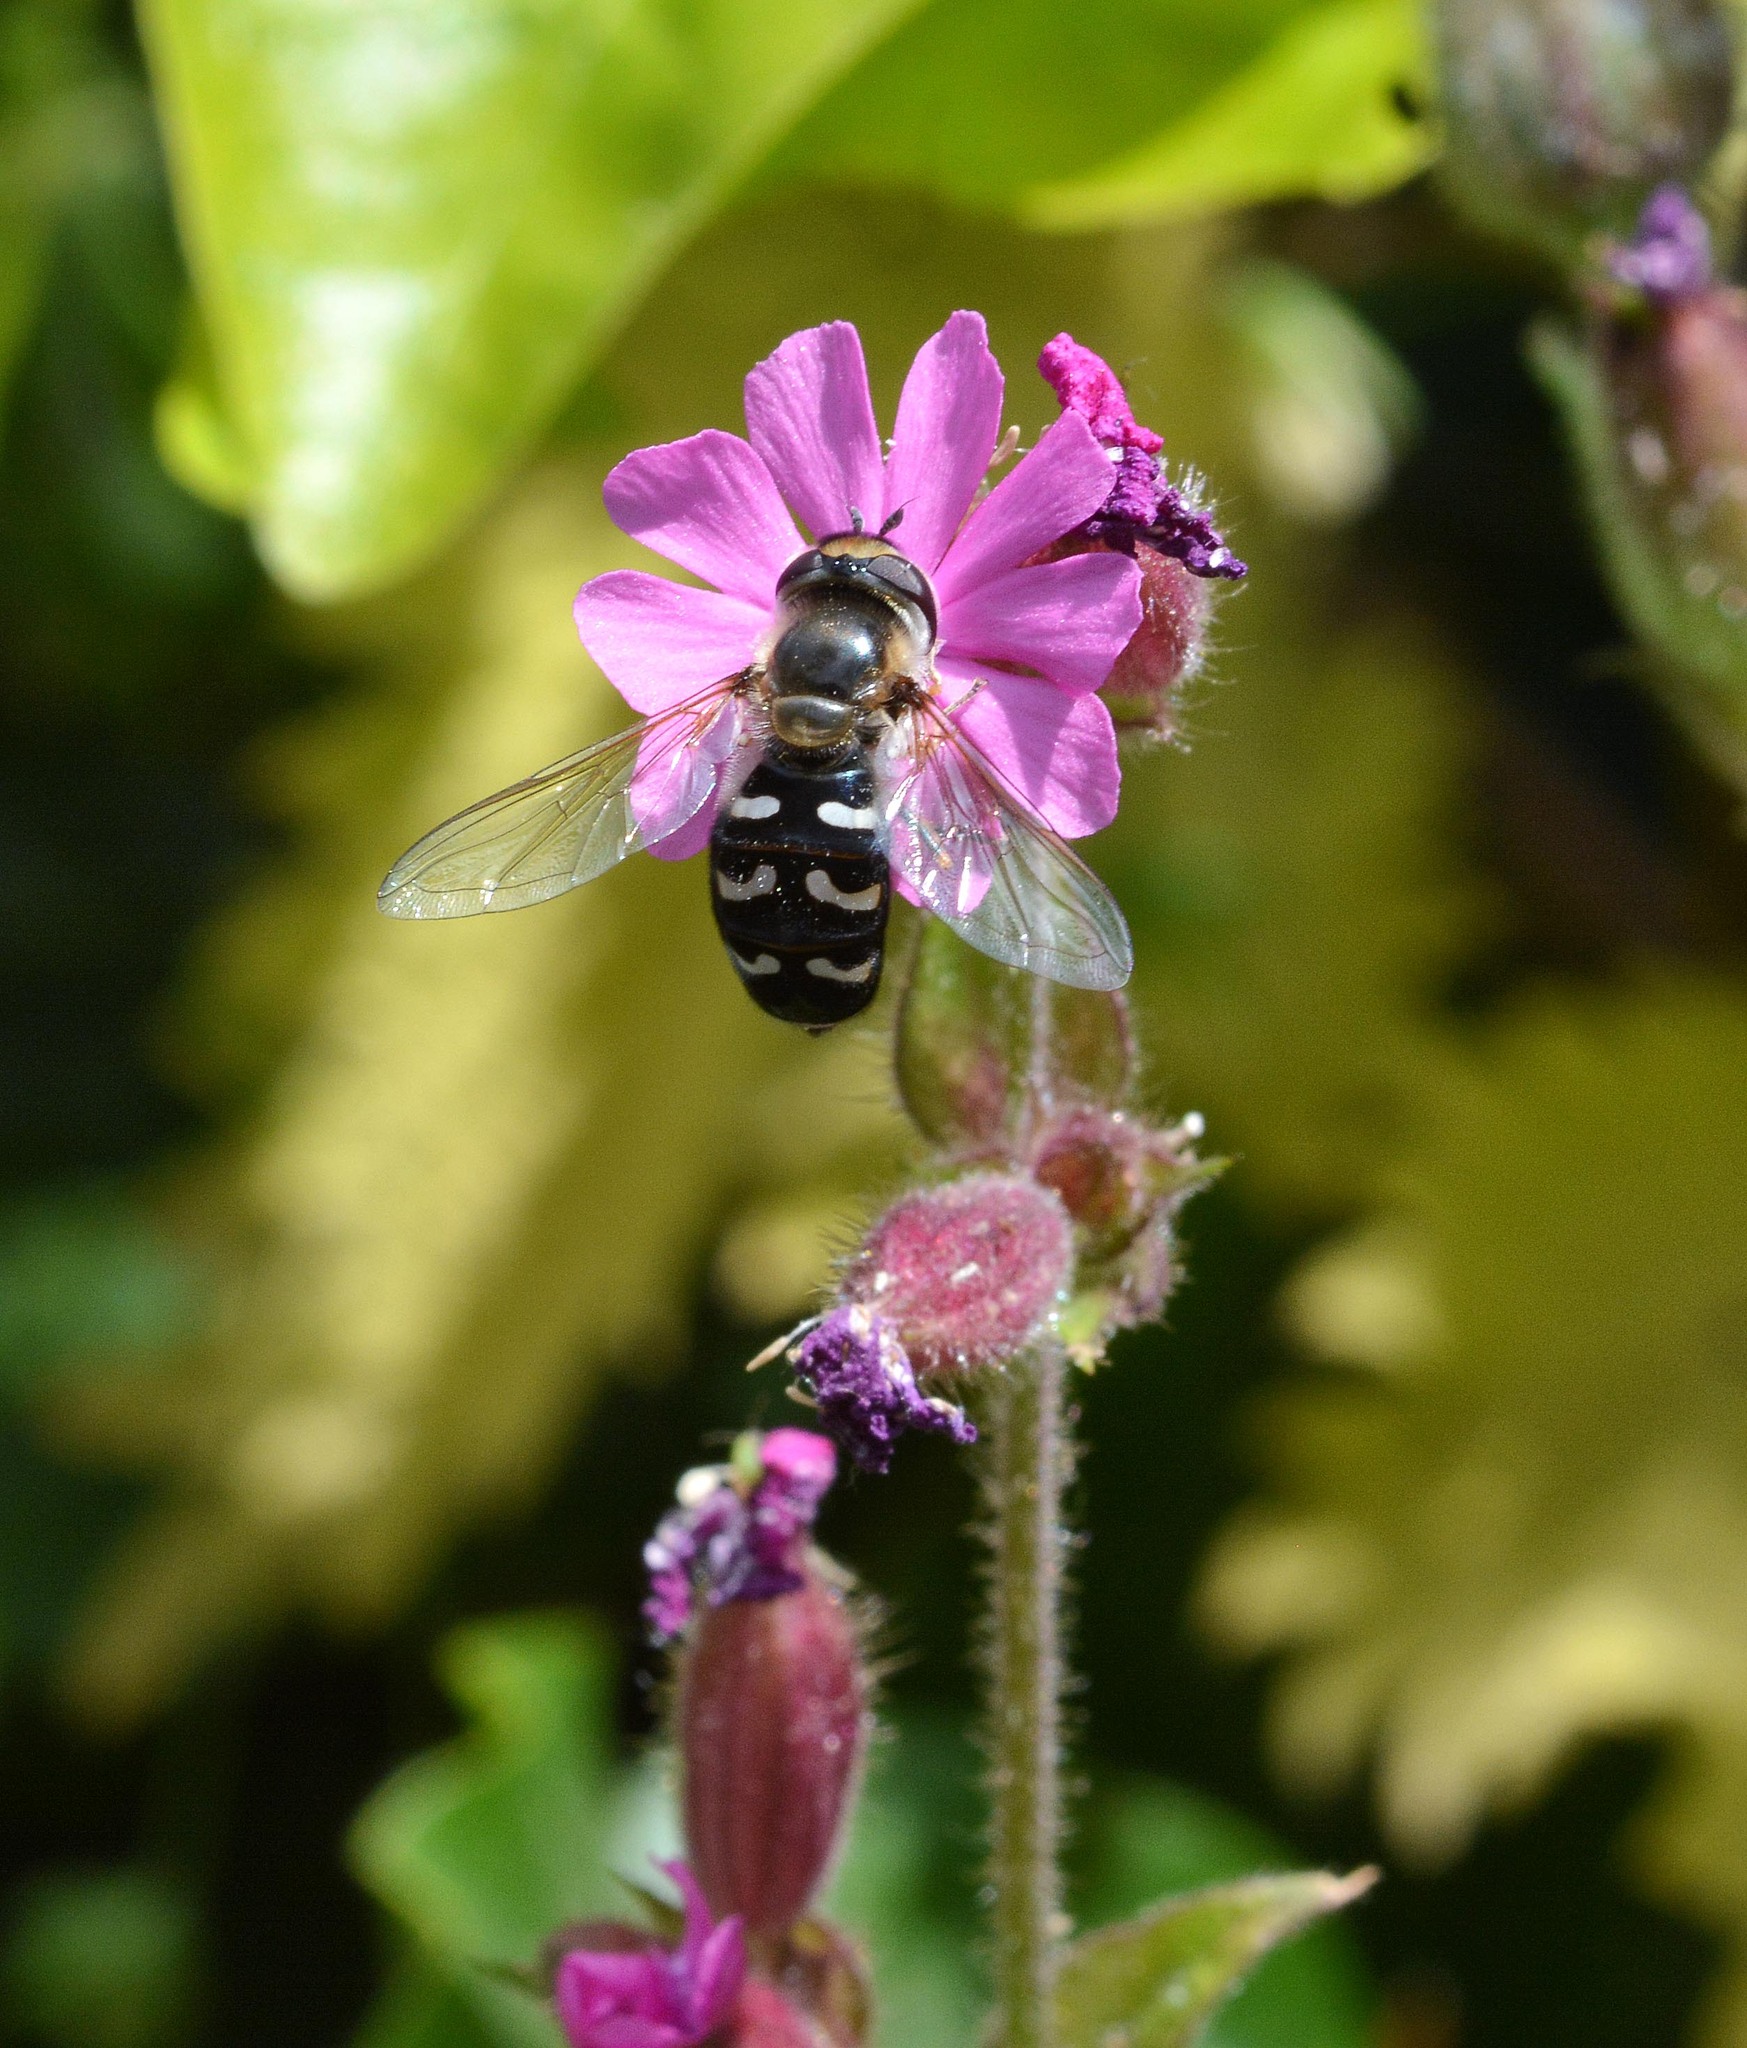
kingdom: Animalia
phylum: Arthropoda
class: Insecta
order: Diptera
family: Syrphidae
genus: Scaeva
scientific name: Scaeva pyrastri
